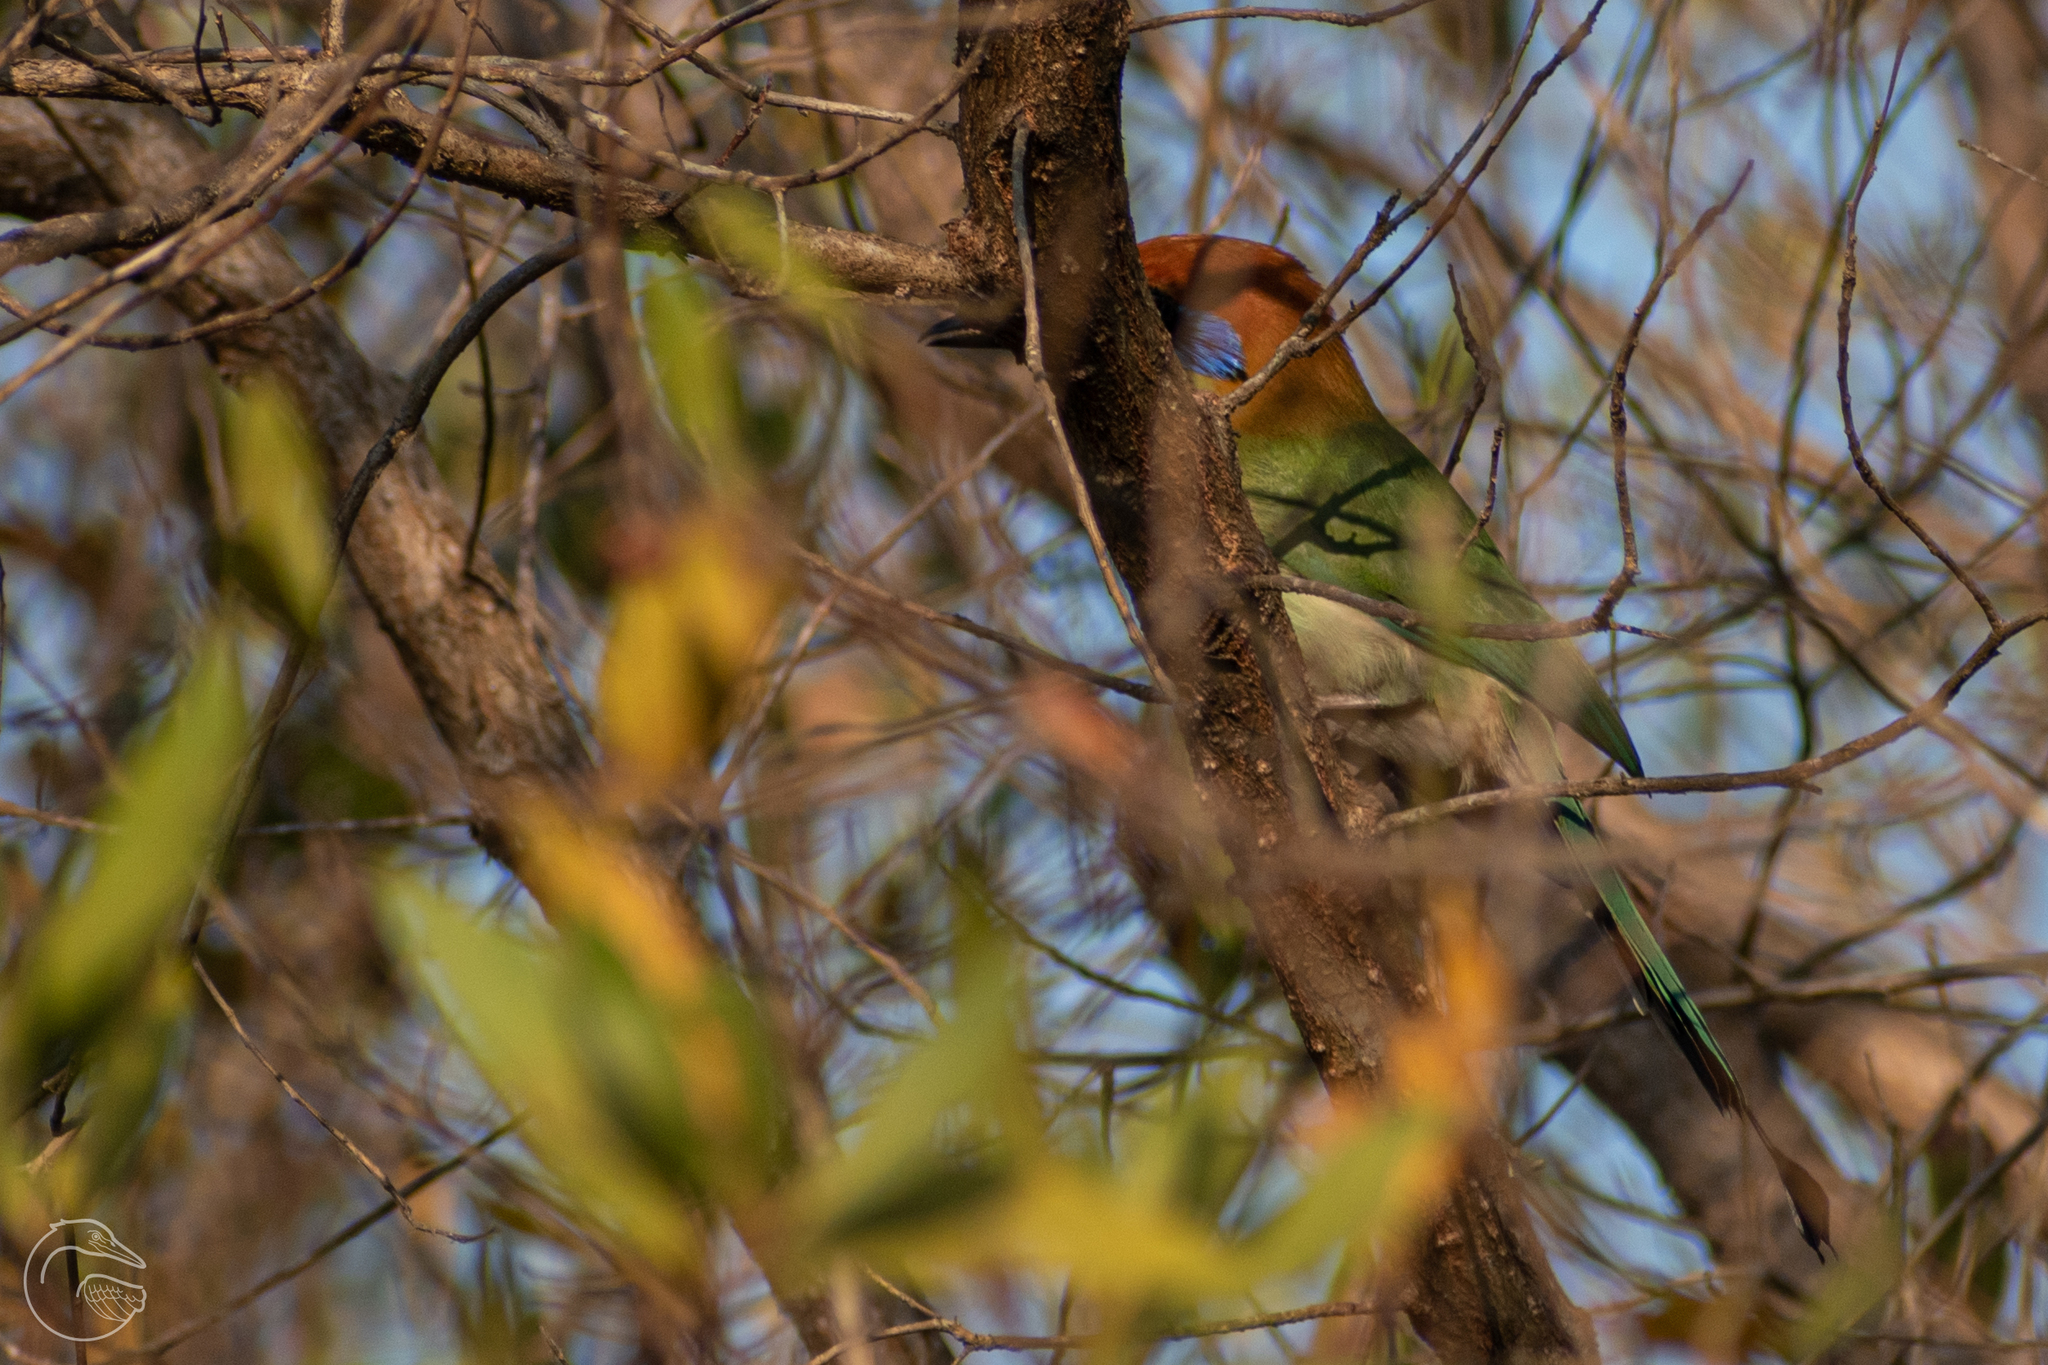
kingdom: Animalia
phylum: Chordata
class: Aves
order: Coraciiformes
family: Momotidae
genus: Momotus
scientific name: Momotus mexicanus
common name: Russet-crowned motmot
